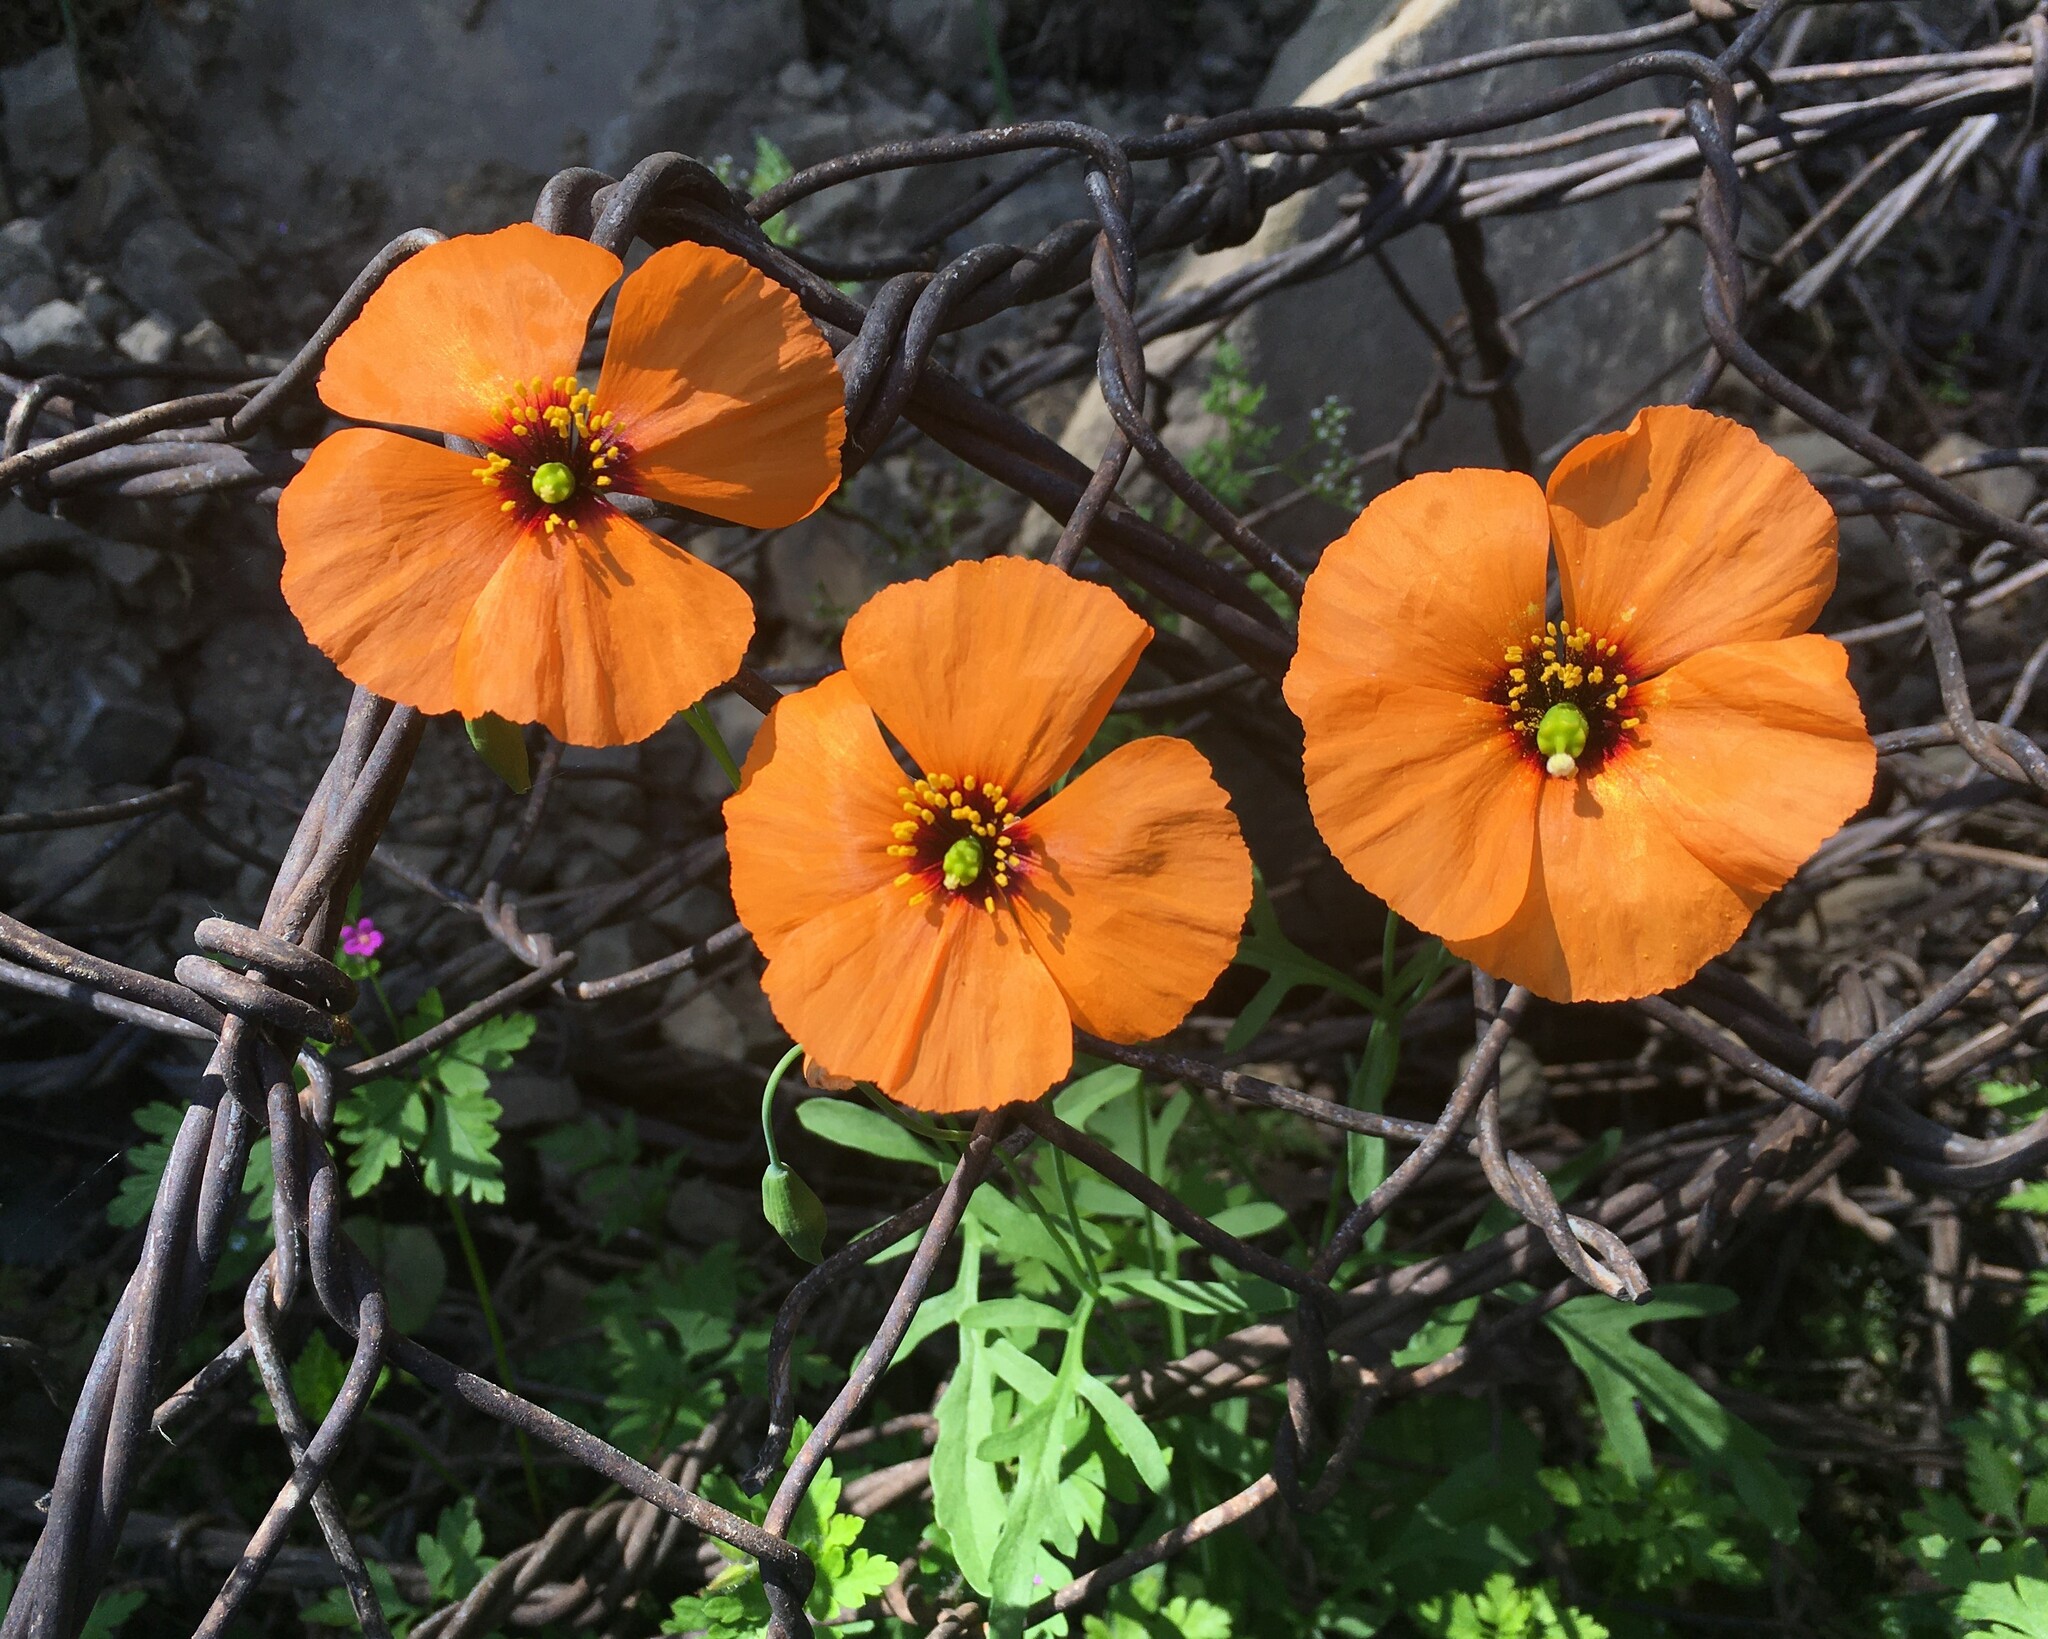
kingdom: Plantae
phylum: Tracheophyta
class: Magnoliopsida
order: Ranunculales
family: Papaveraceae
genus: Stylomecon
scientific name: Stylomecon heterophylla
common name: Flaming-poppy
